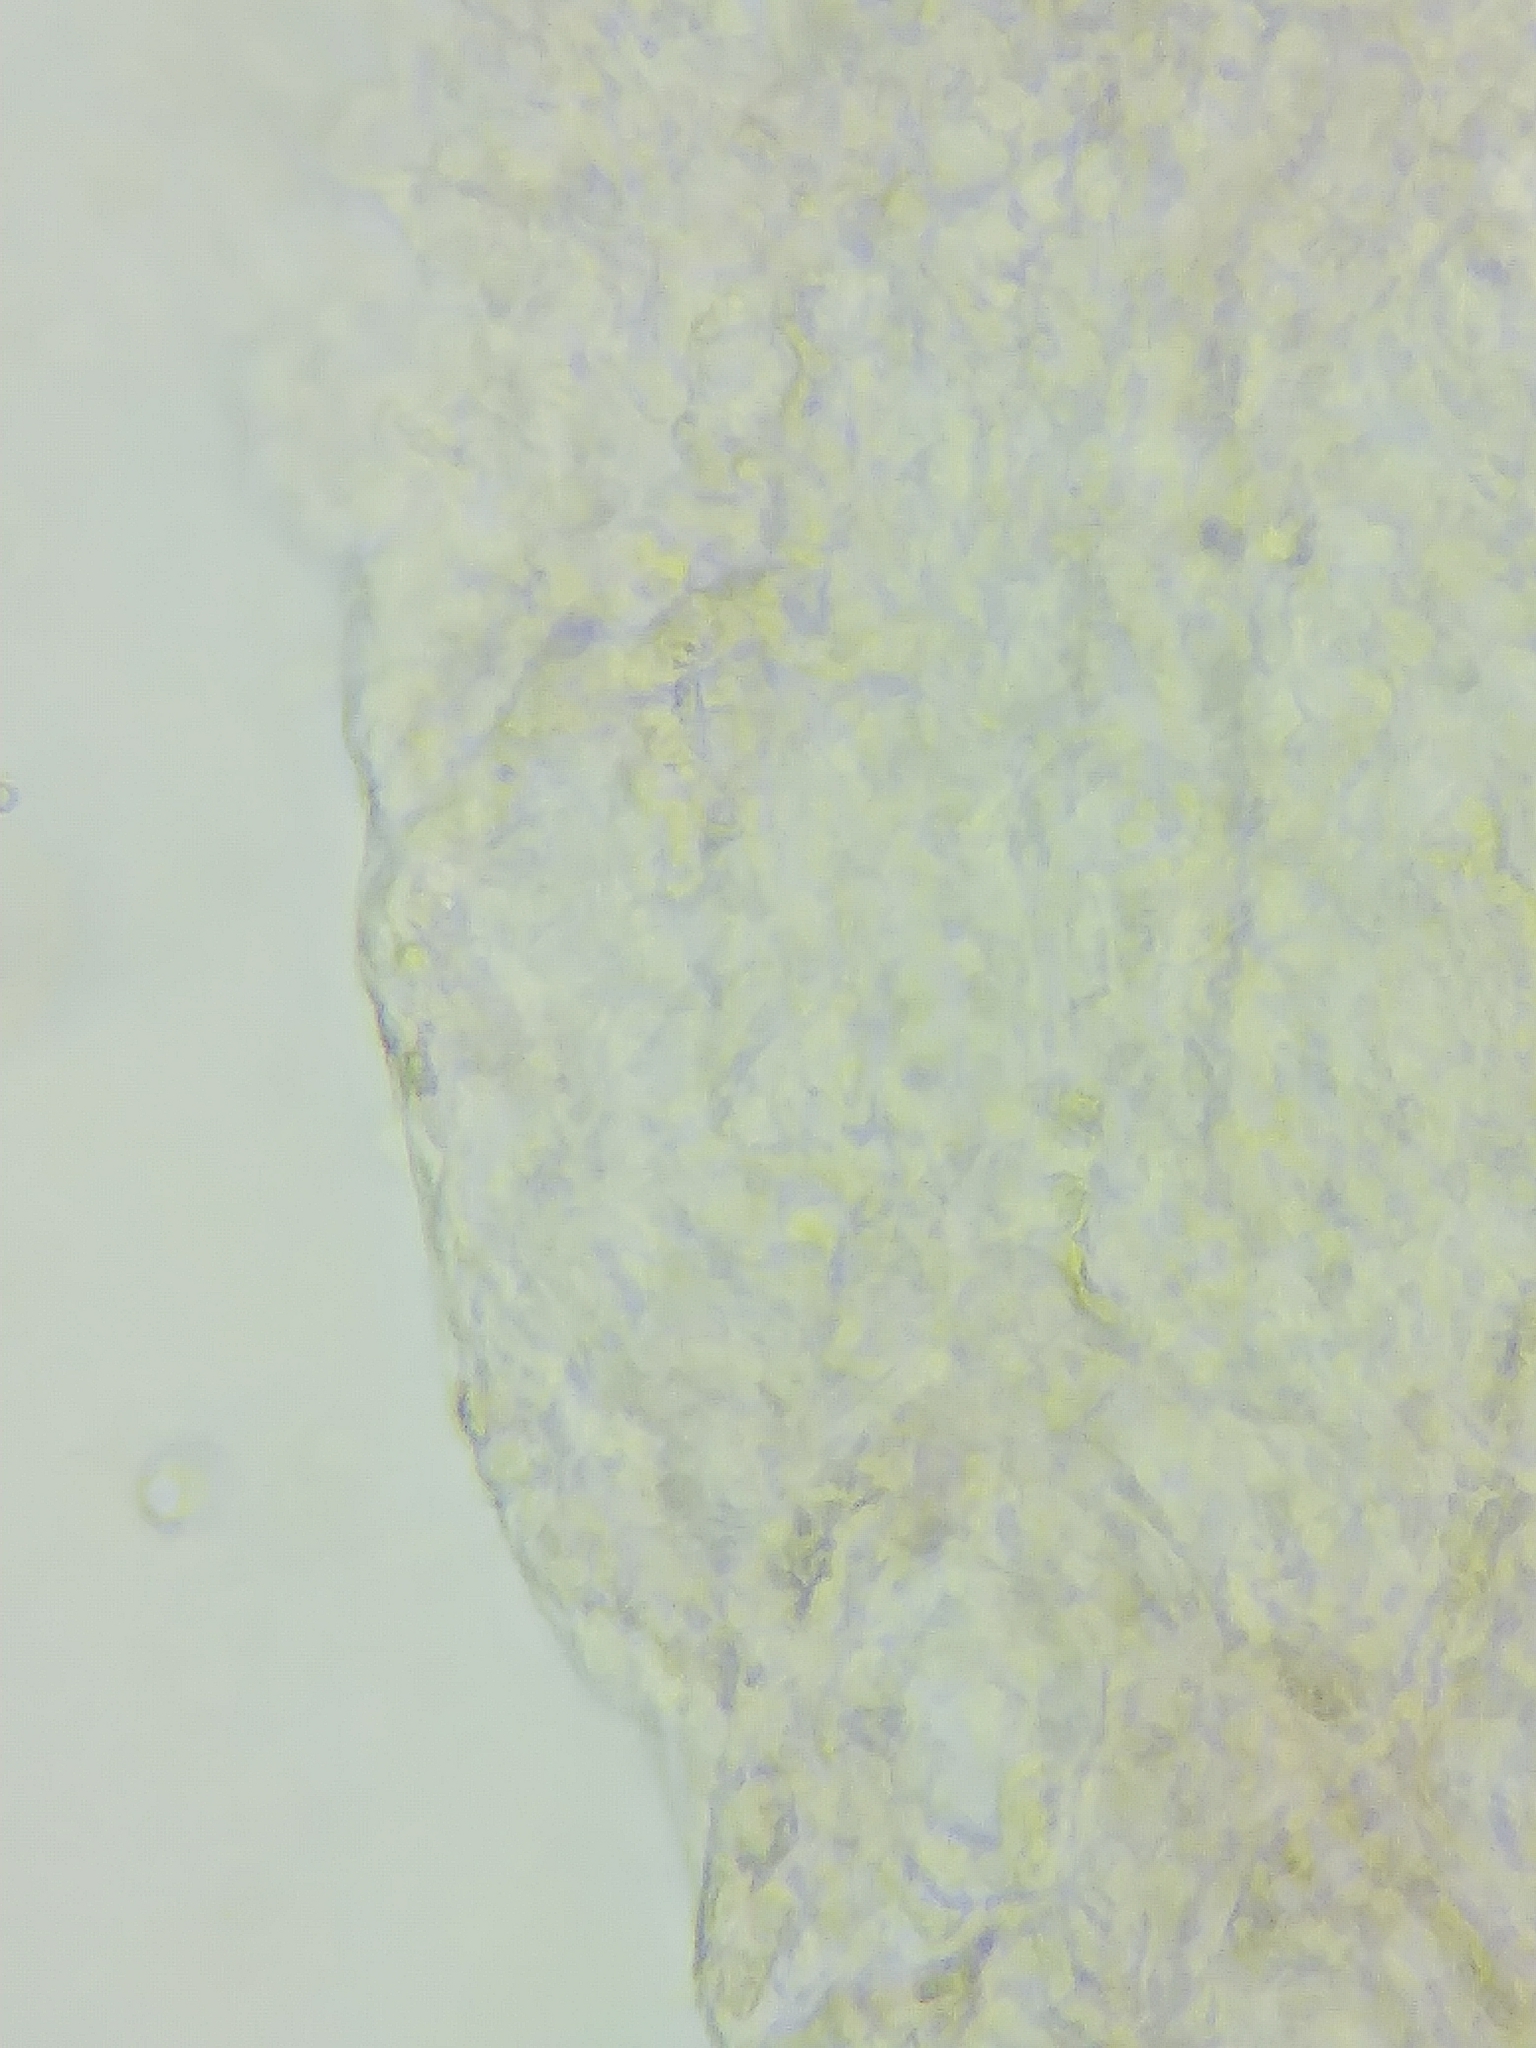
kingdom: Fungi
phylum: Basidiomycota
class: Agaricomycetes
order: Russulales
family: Russulaceae
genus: Russula
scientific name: Russula rugulosa
